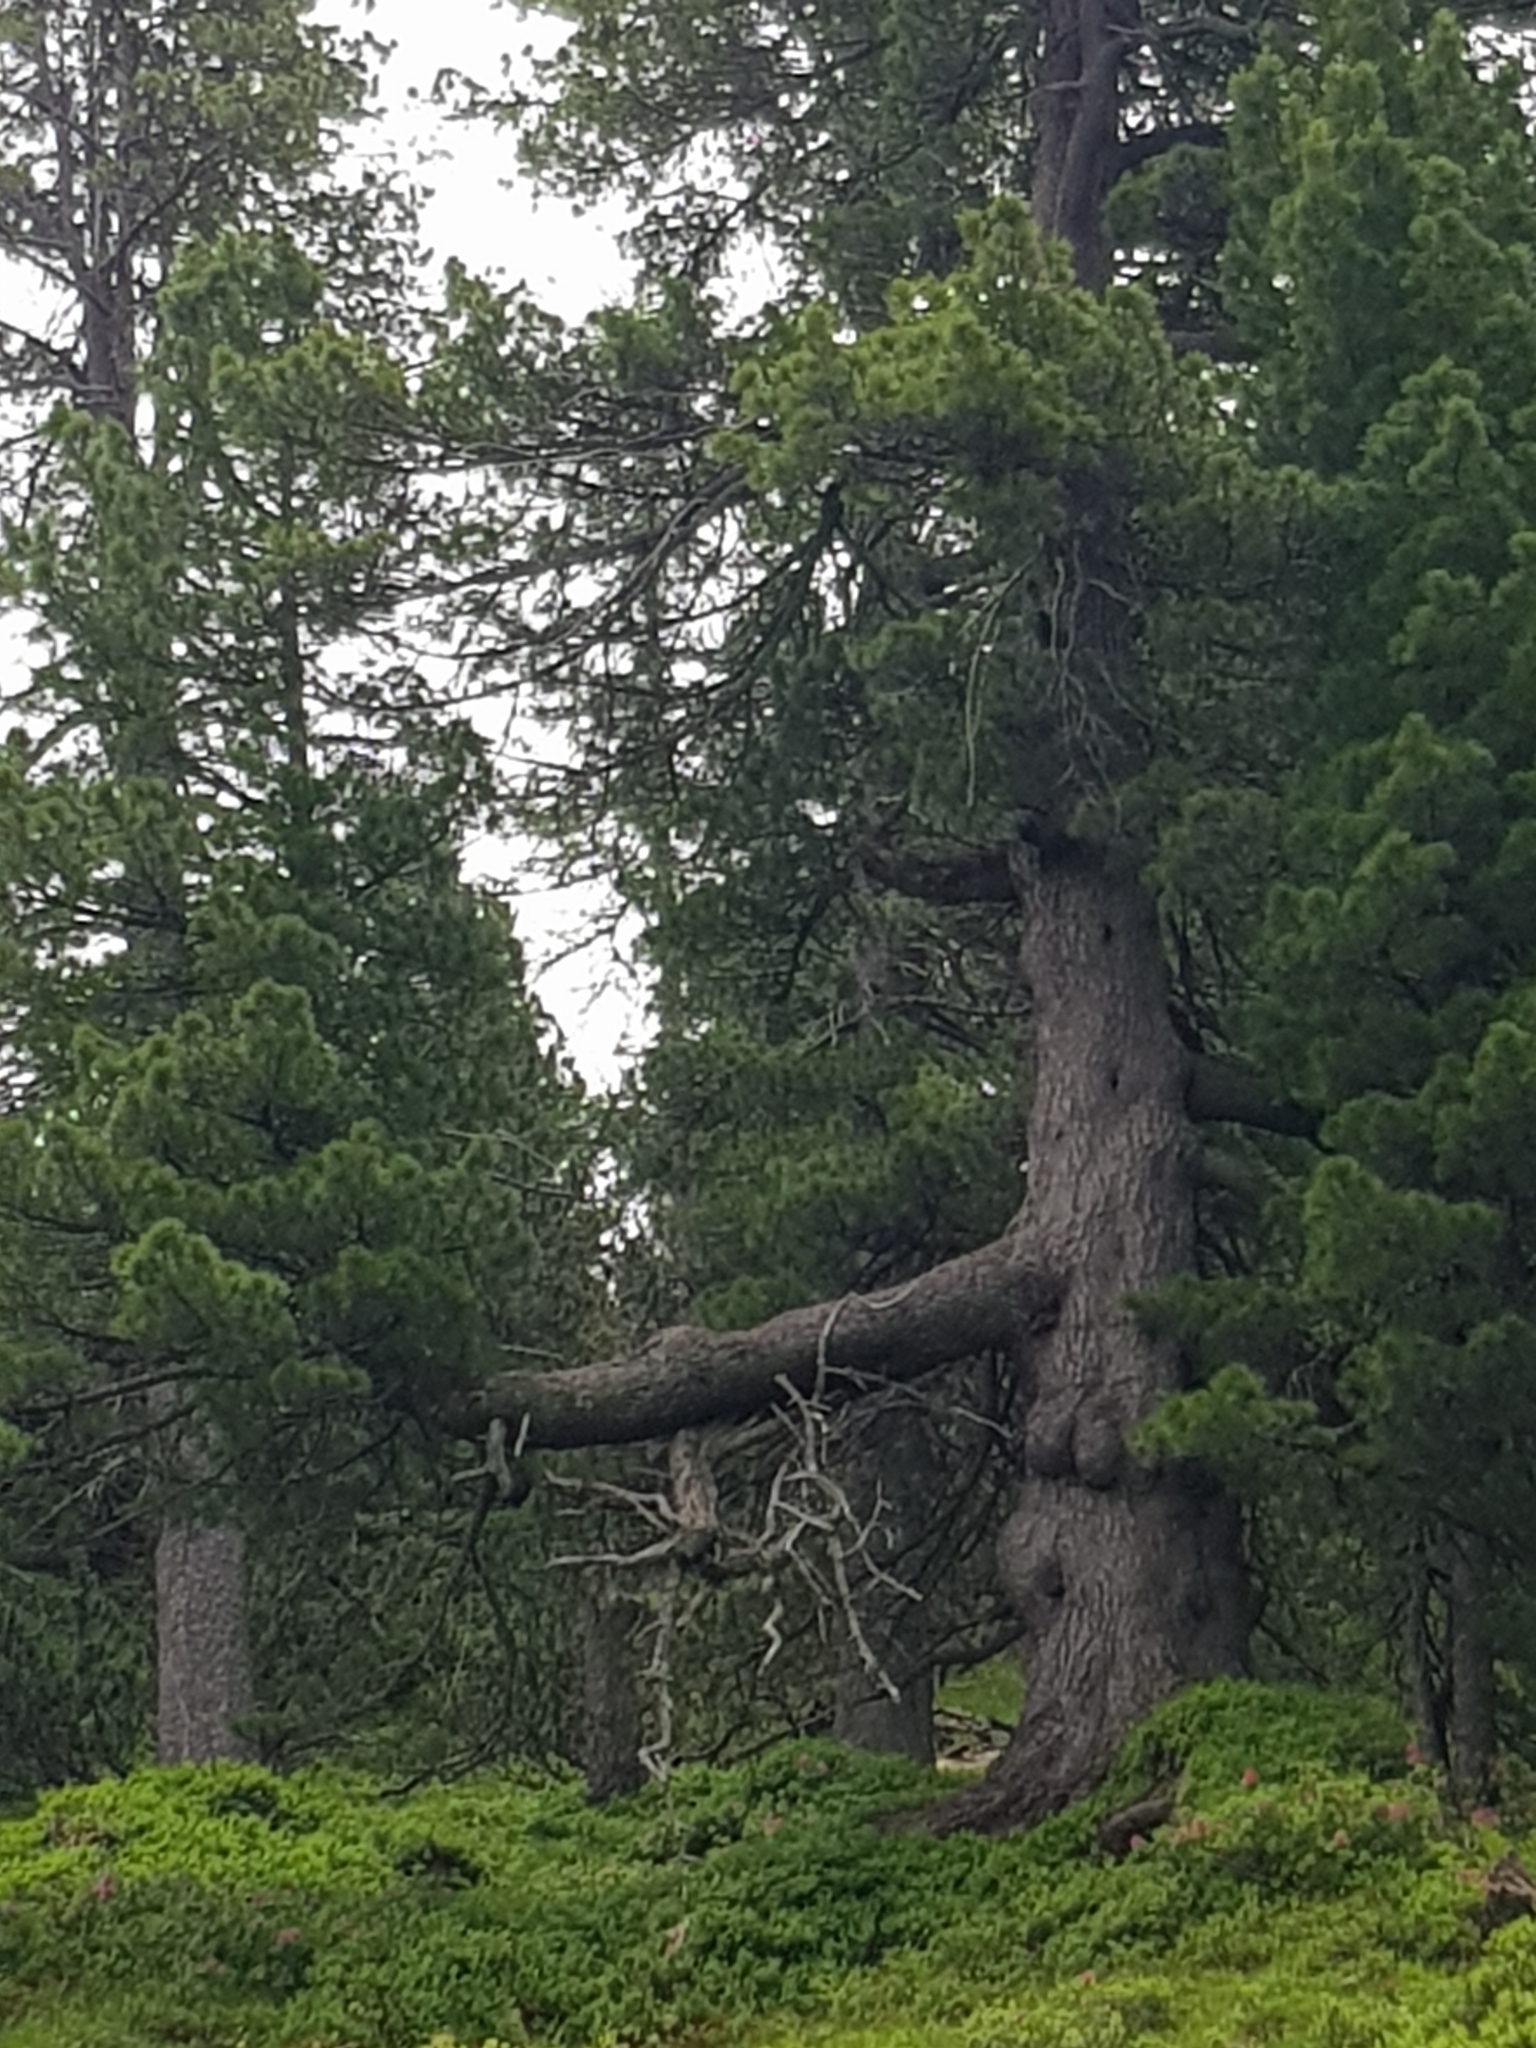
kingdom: Plantae
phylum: Tracheophyta
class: Pinopsida
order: Pinales
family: Pinaceae
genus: Pinus
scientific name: Pinus cembra
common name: Arolla pine
